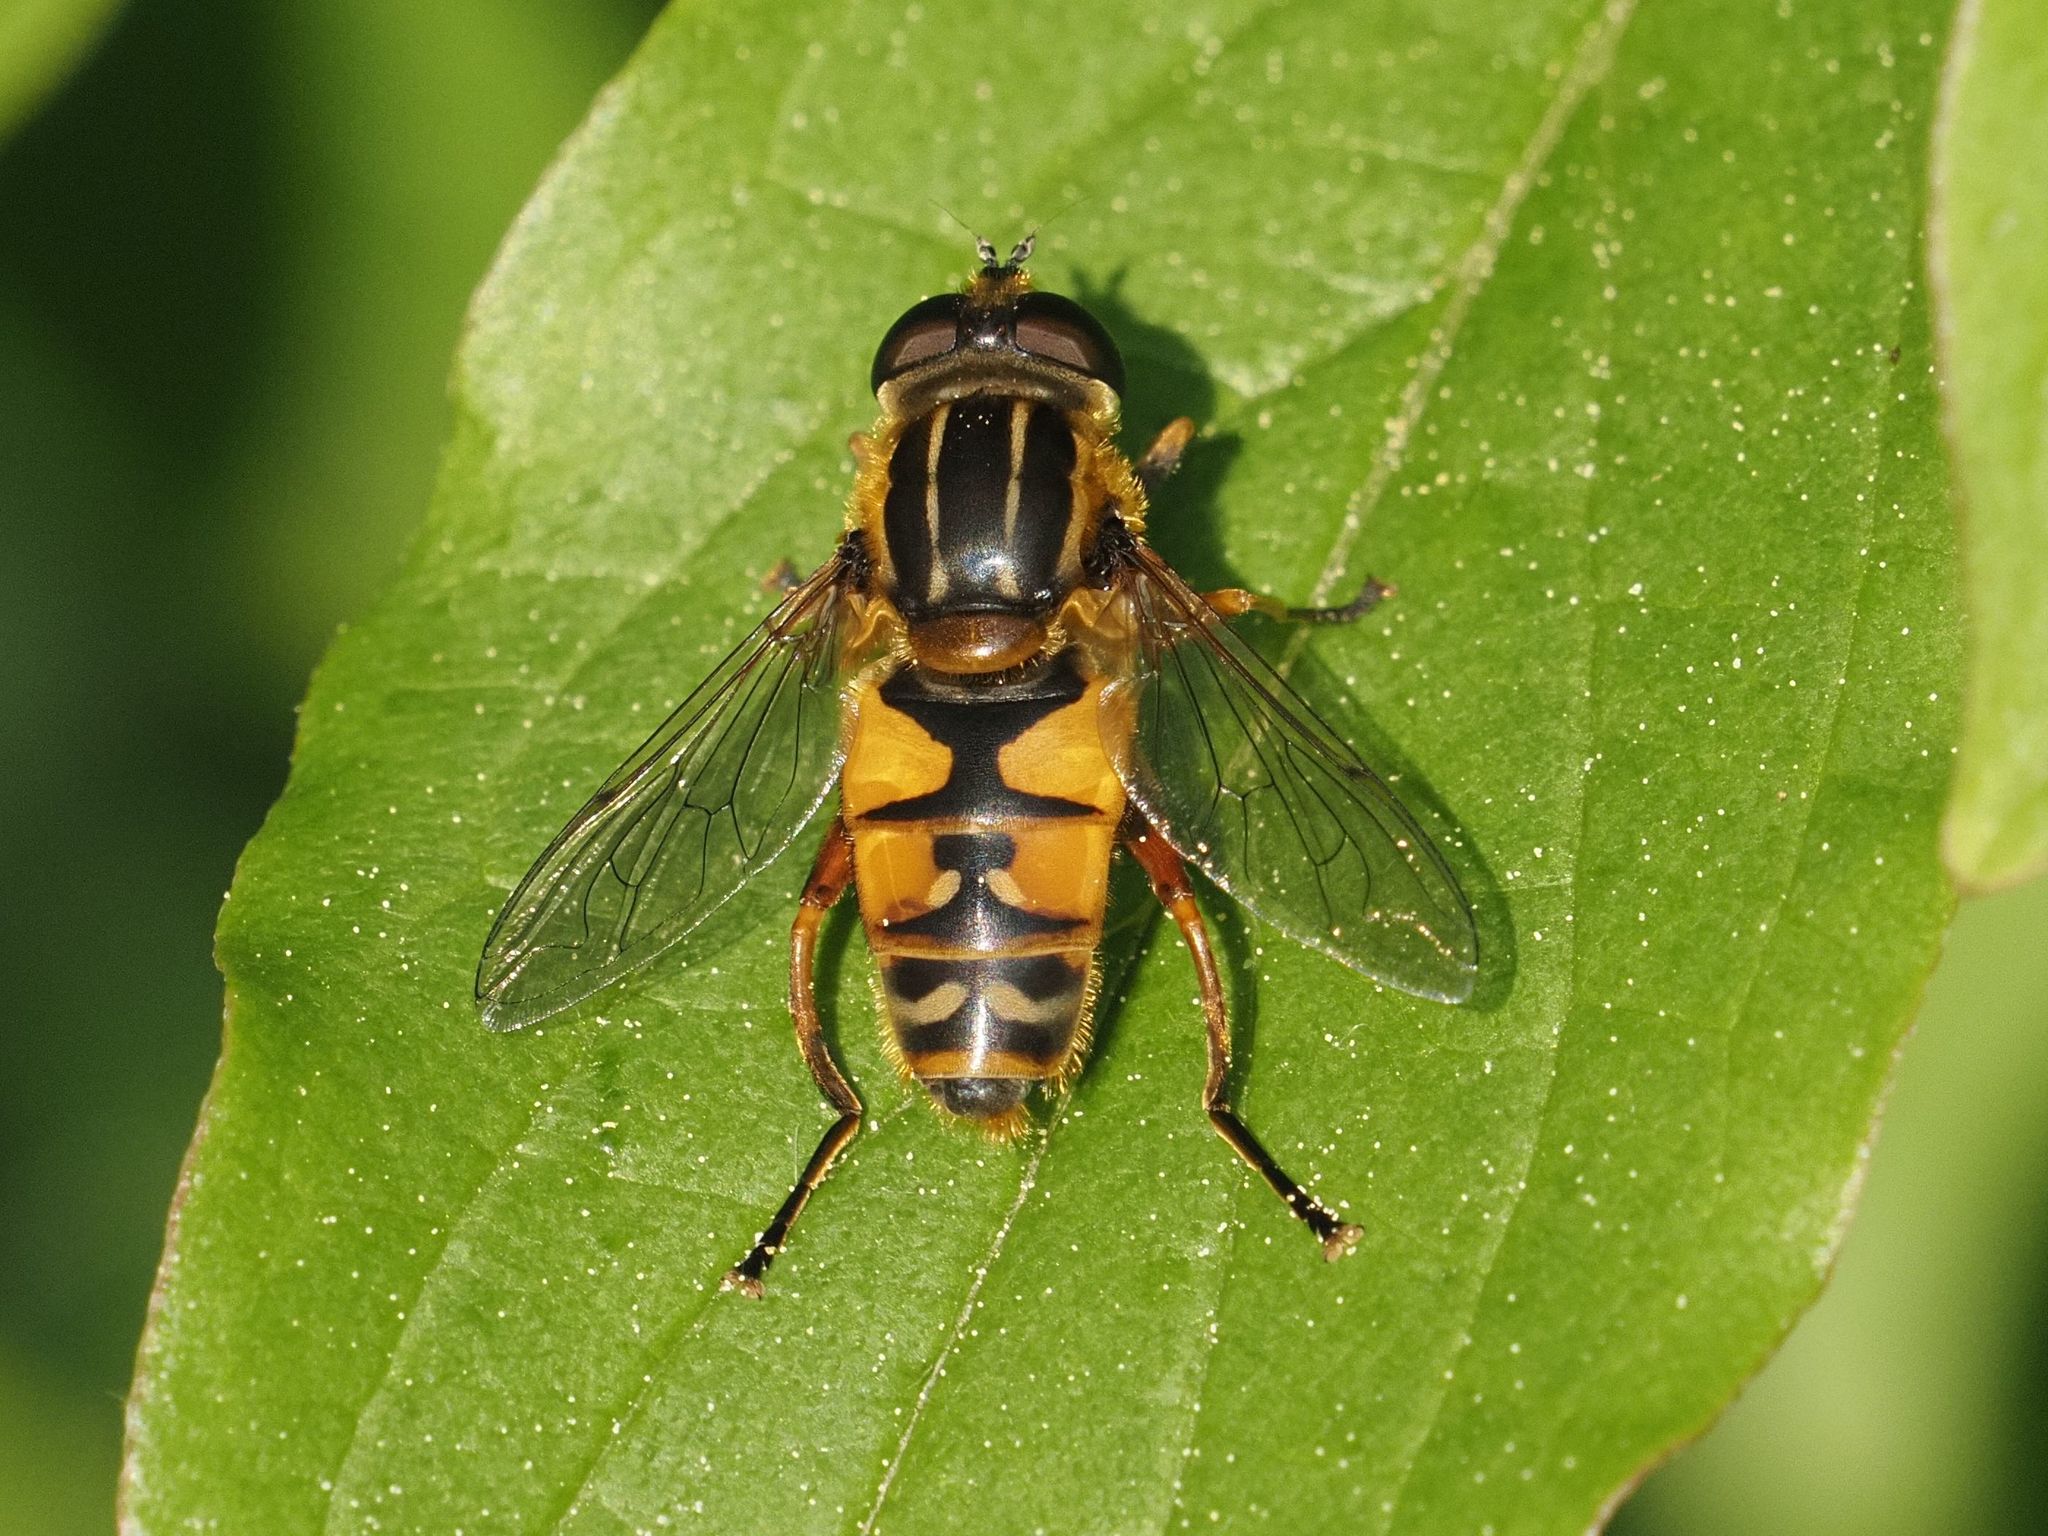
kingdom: Animalia
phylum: Arthropoda
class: Insecta
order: Diptera
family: Syrphidae
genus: Helophilus
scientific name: Helophilus pendulus
